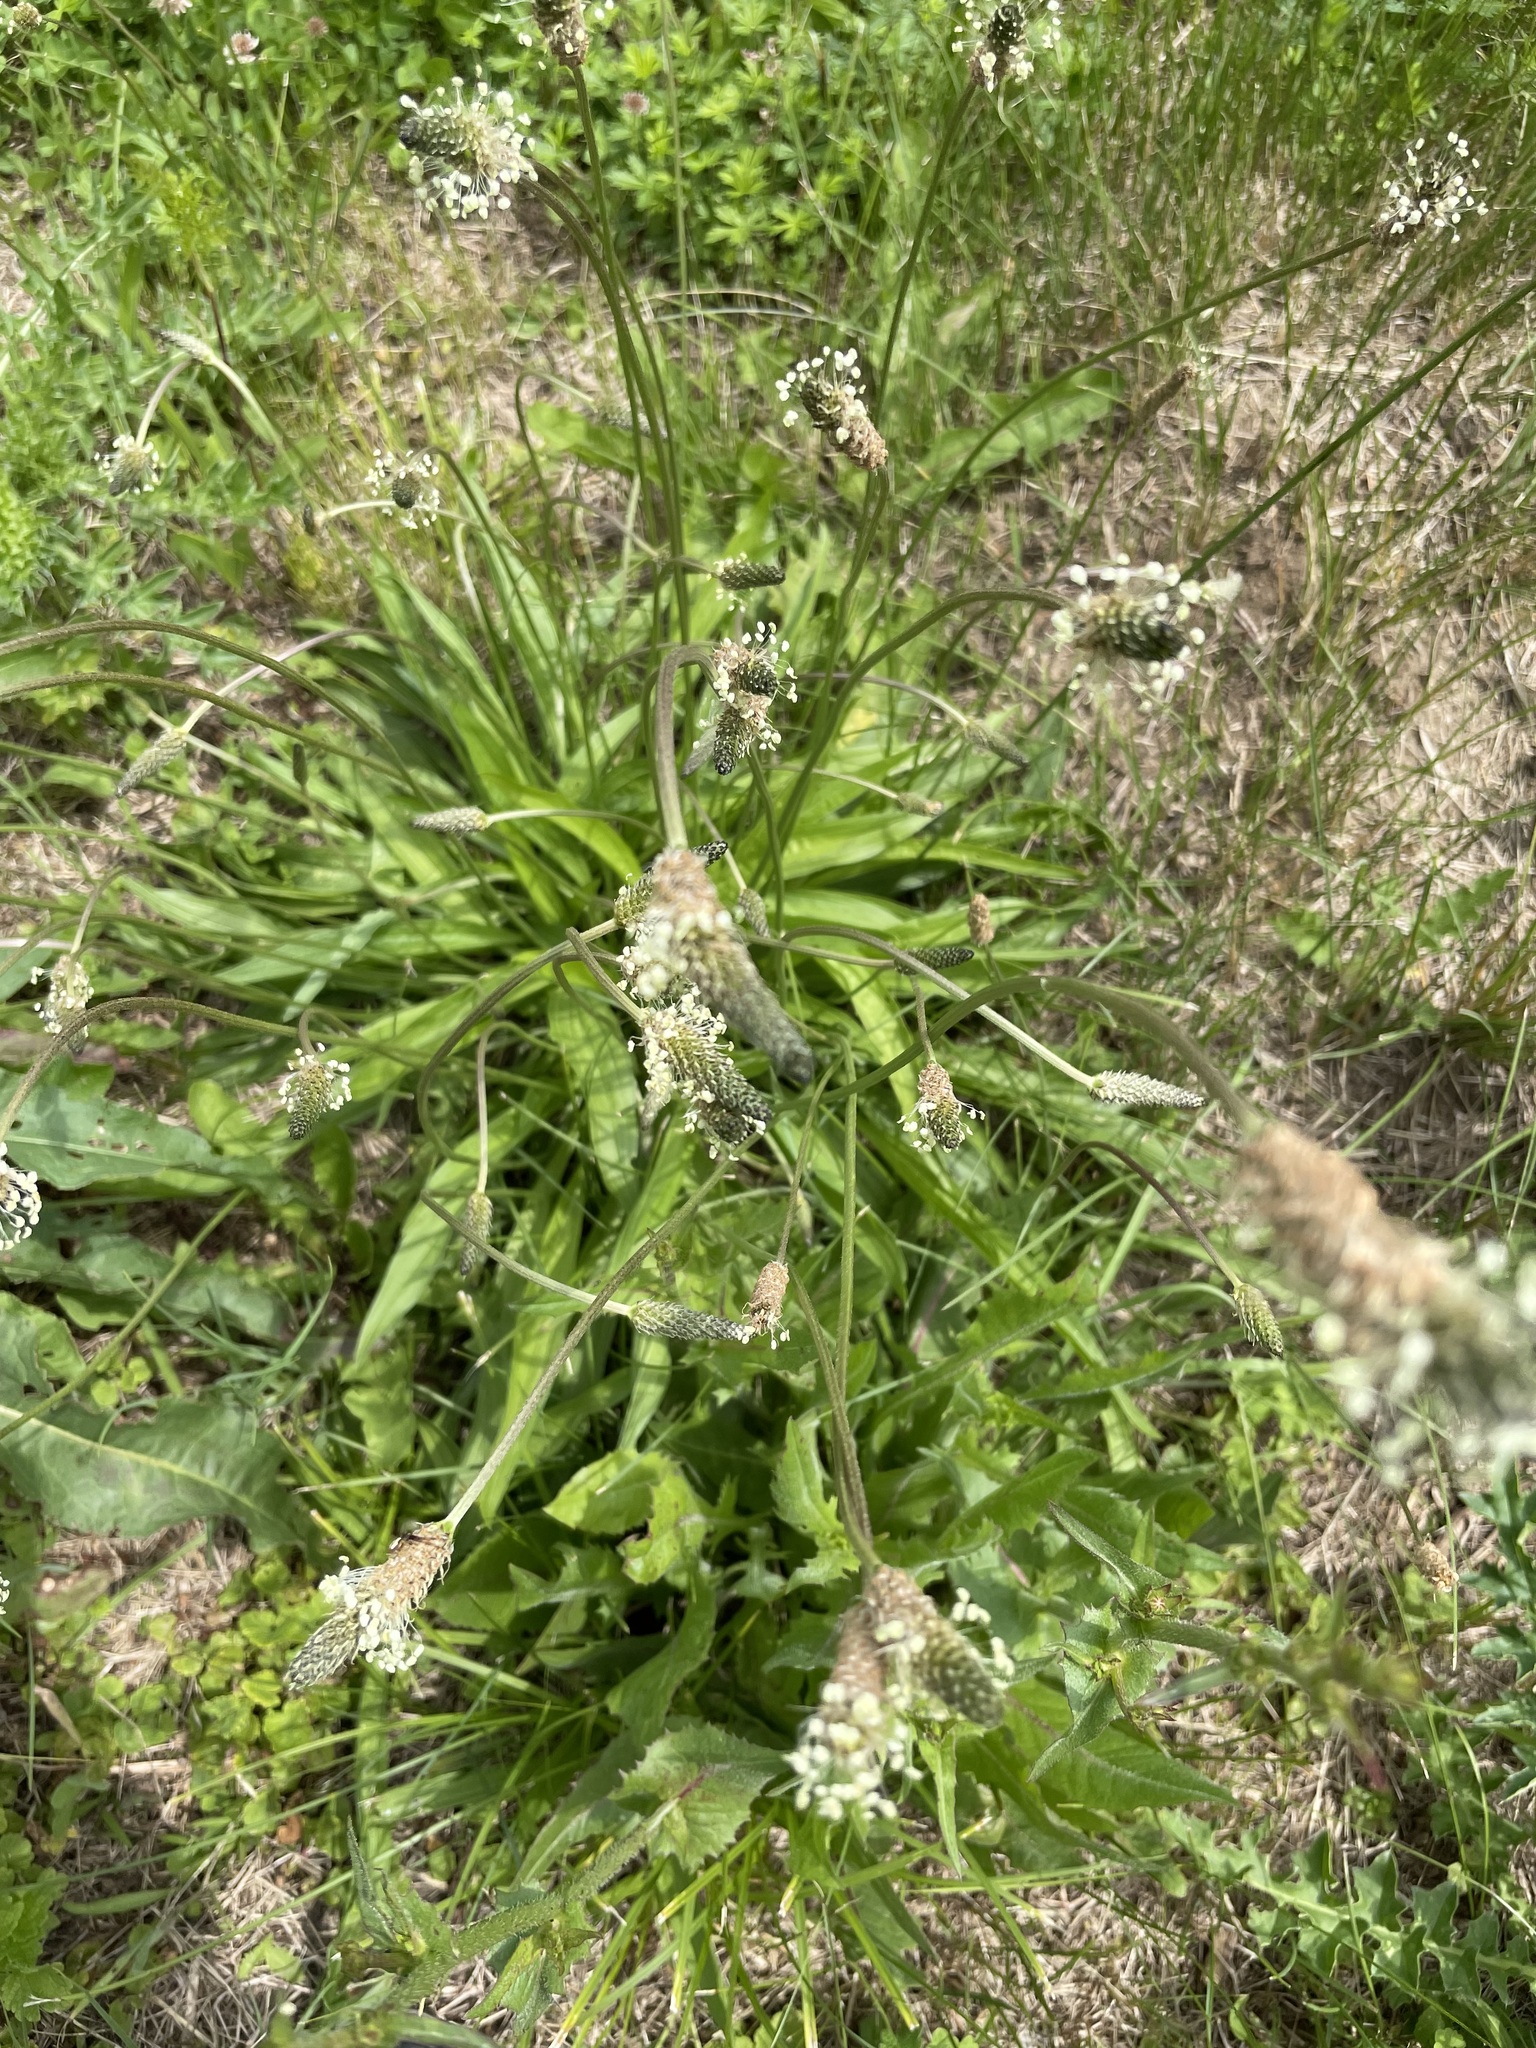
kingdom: Plantae
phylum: Tracheophyta
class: Magnoliopsida
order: Lamiales
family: Plantaginaceae
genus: Plantago
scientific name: Plantago lanceolata
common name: Ribwort plantain
